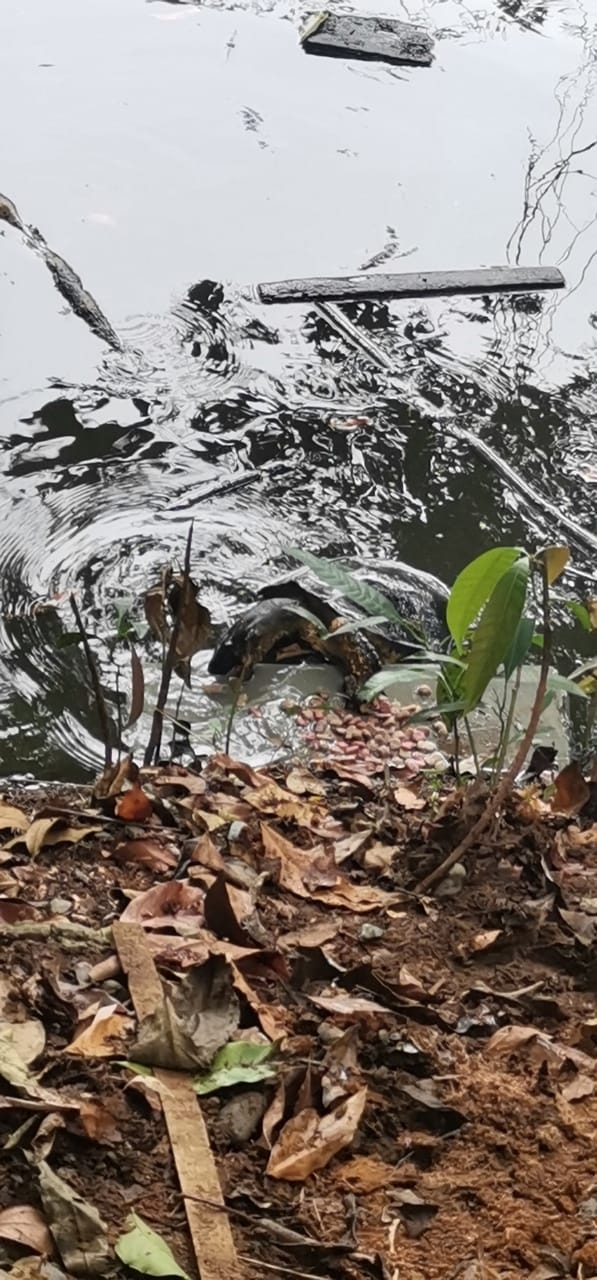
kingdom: Animalia
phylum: Chordata
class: Testudines
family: Geoemydidae
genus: Rhinoclemmys
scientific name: Rhinoclemmys funerea
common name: Black wood turtle
